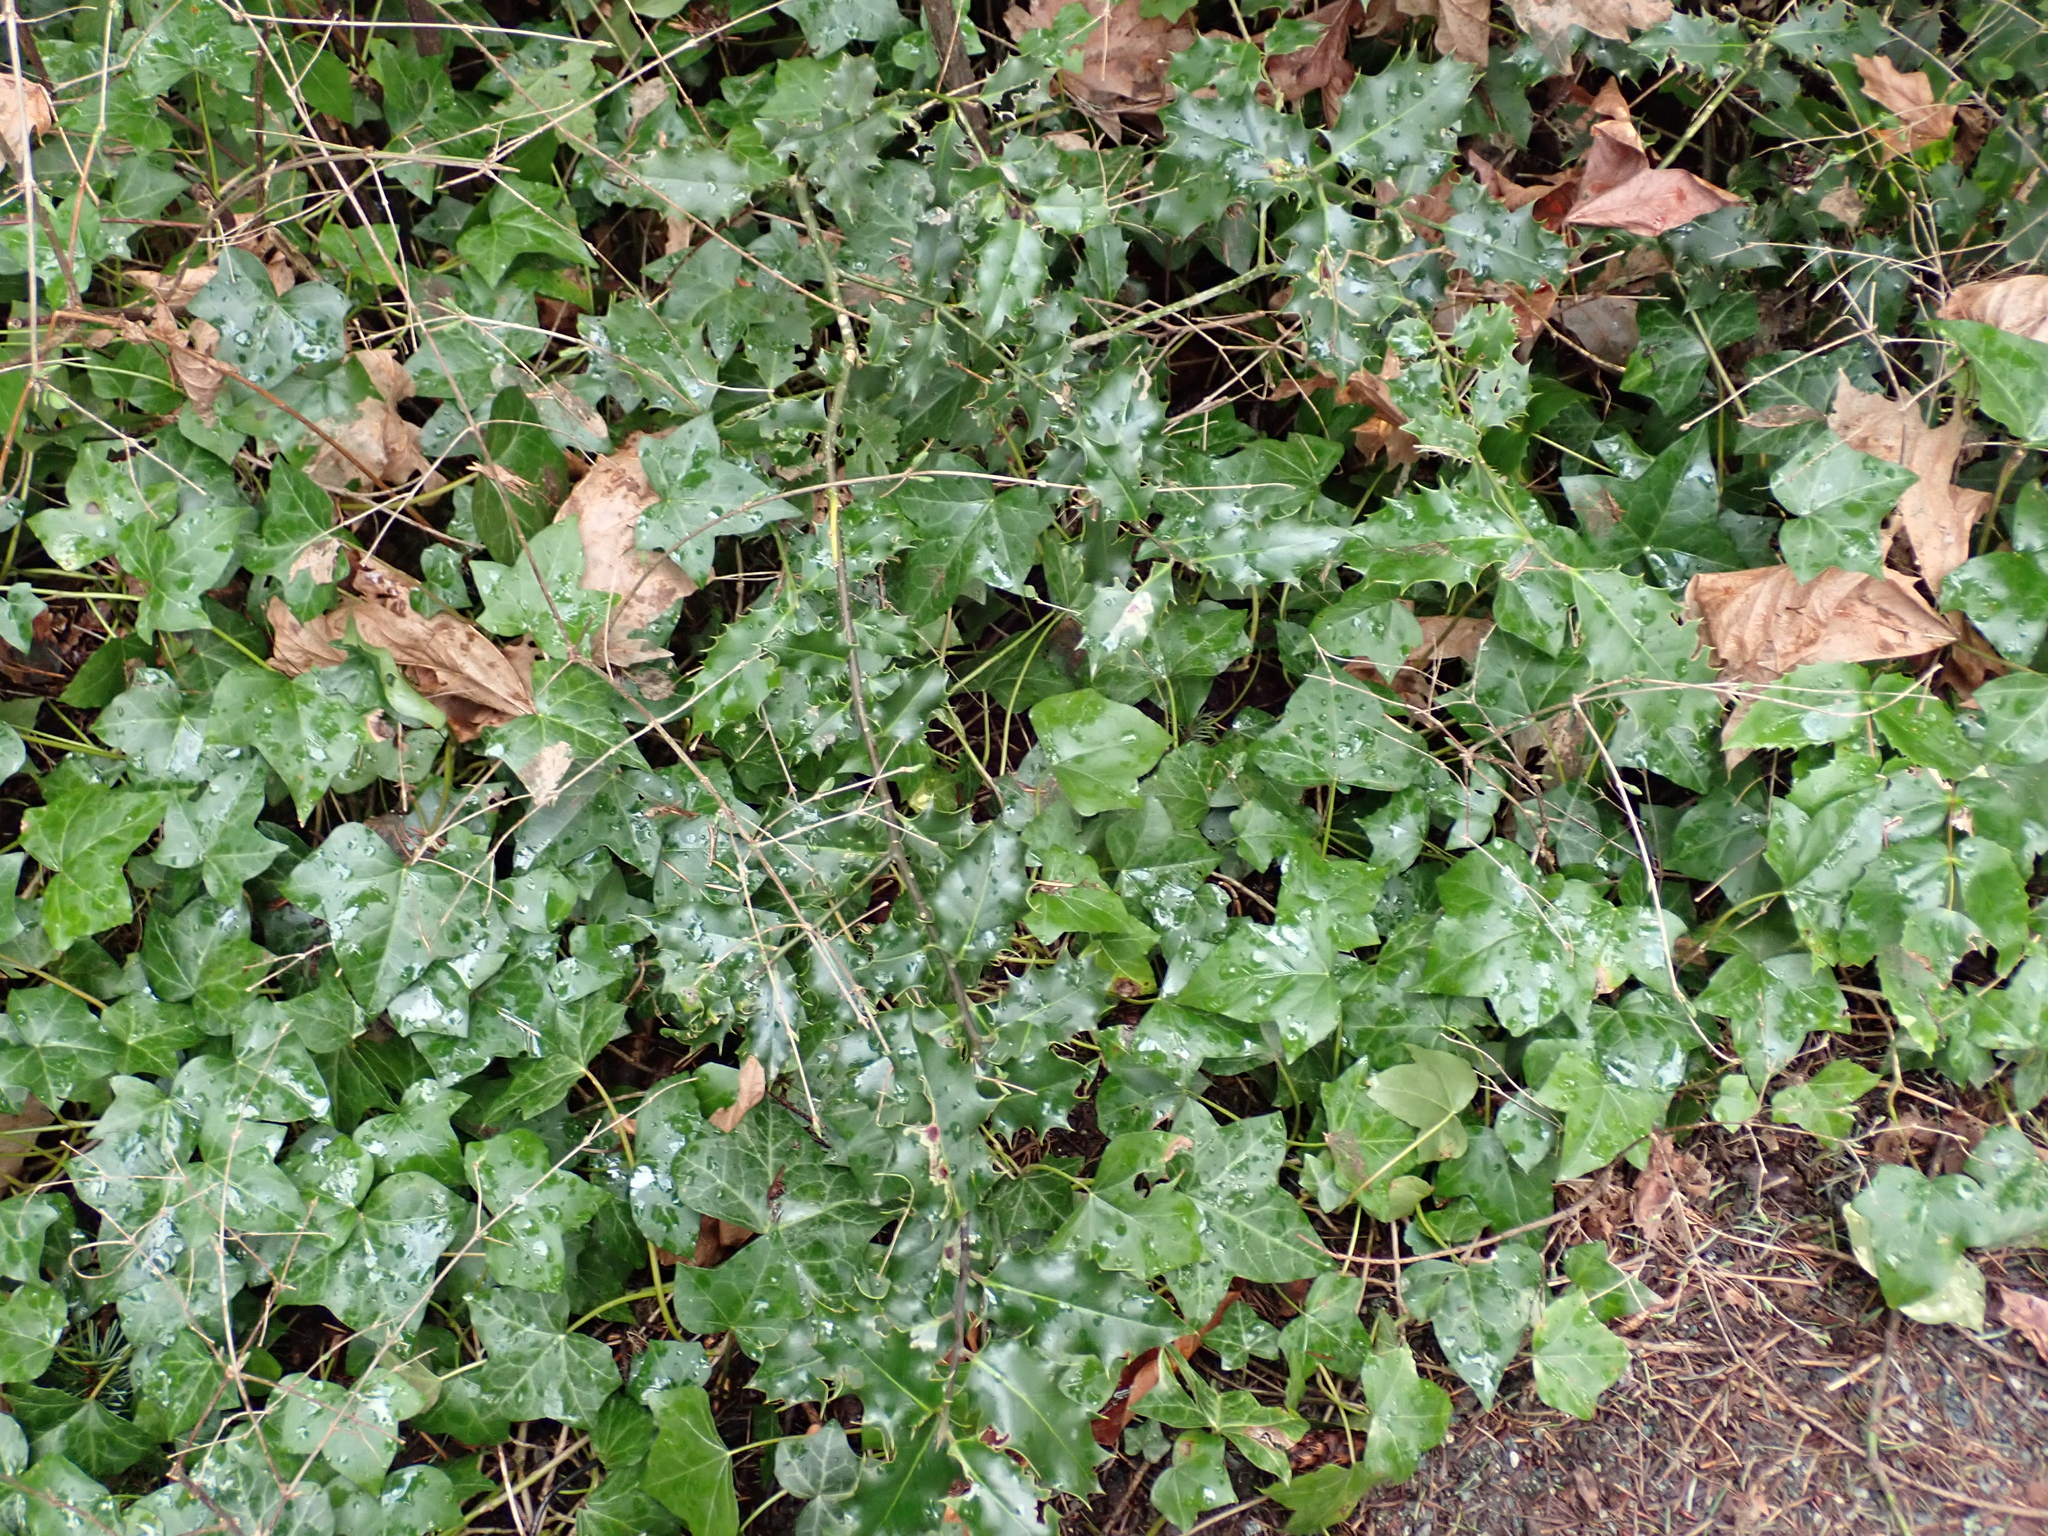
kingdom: Plantae
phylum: Tracheophyta
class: Magnoliopsida
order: Aquifoliales
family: Aquifoliaceae
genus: Ilex
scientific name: Ilex aquifolium
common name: English holly
